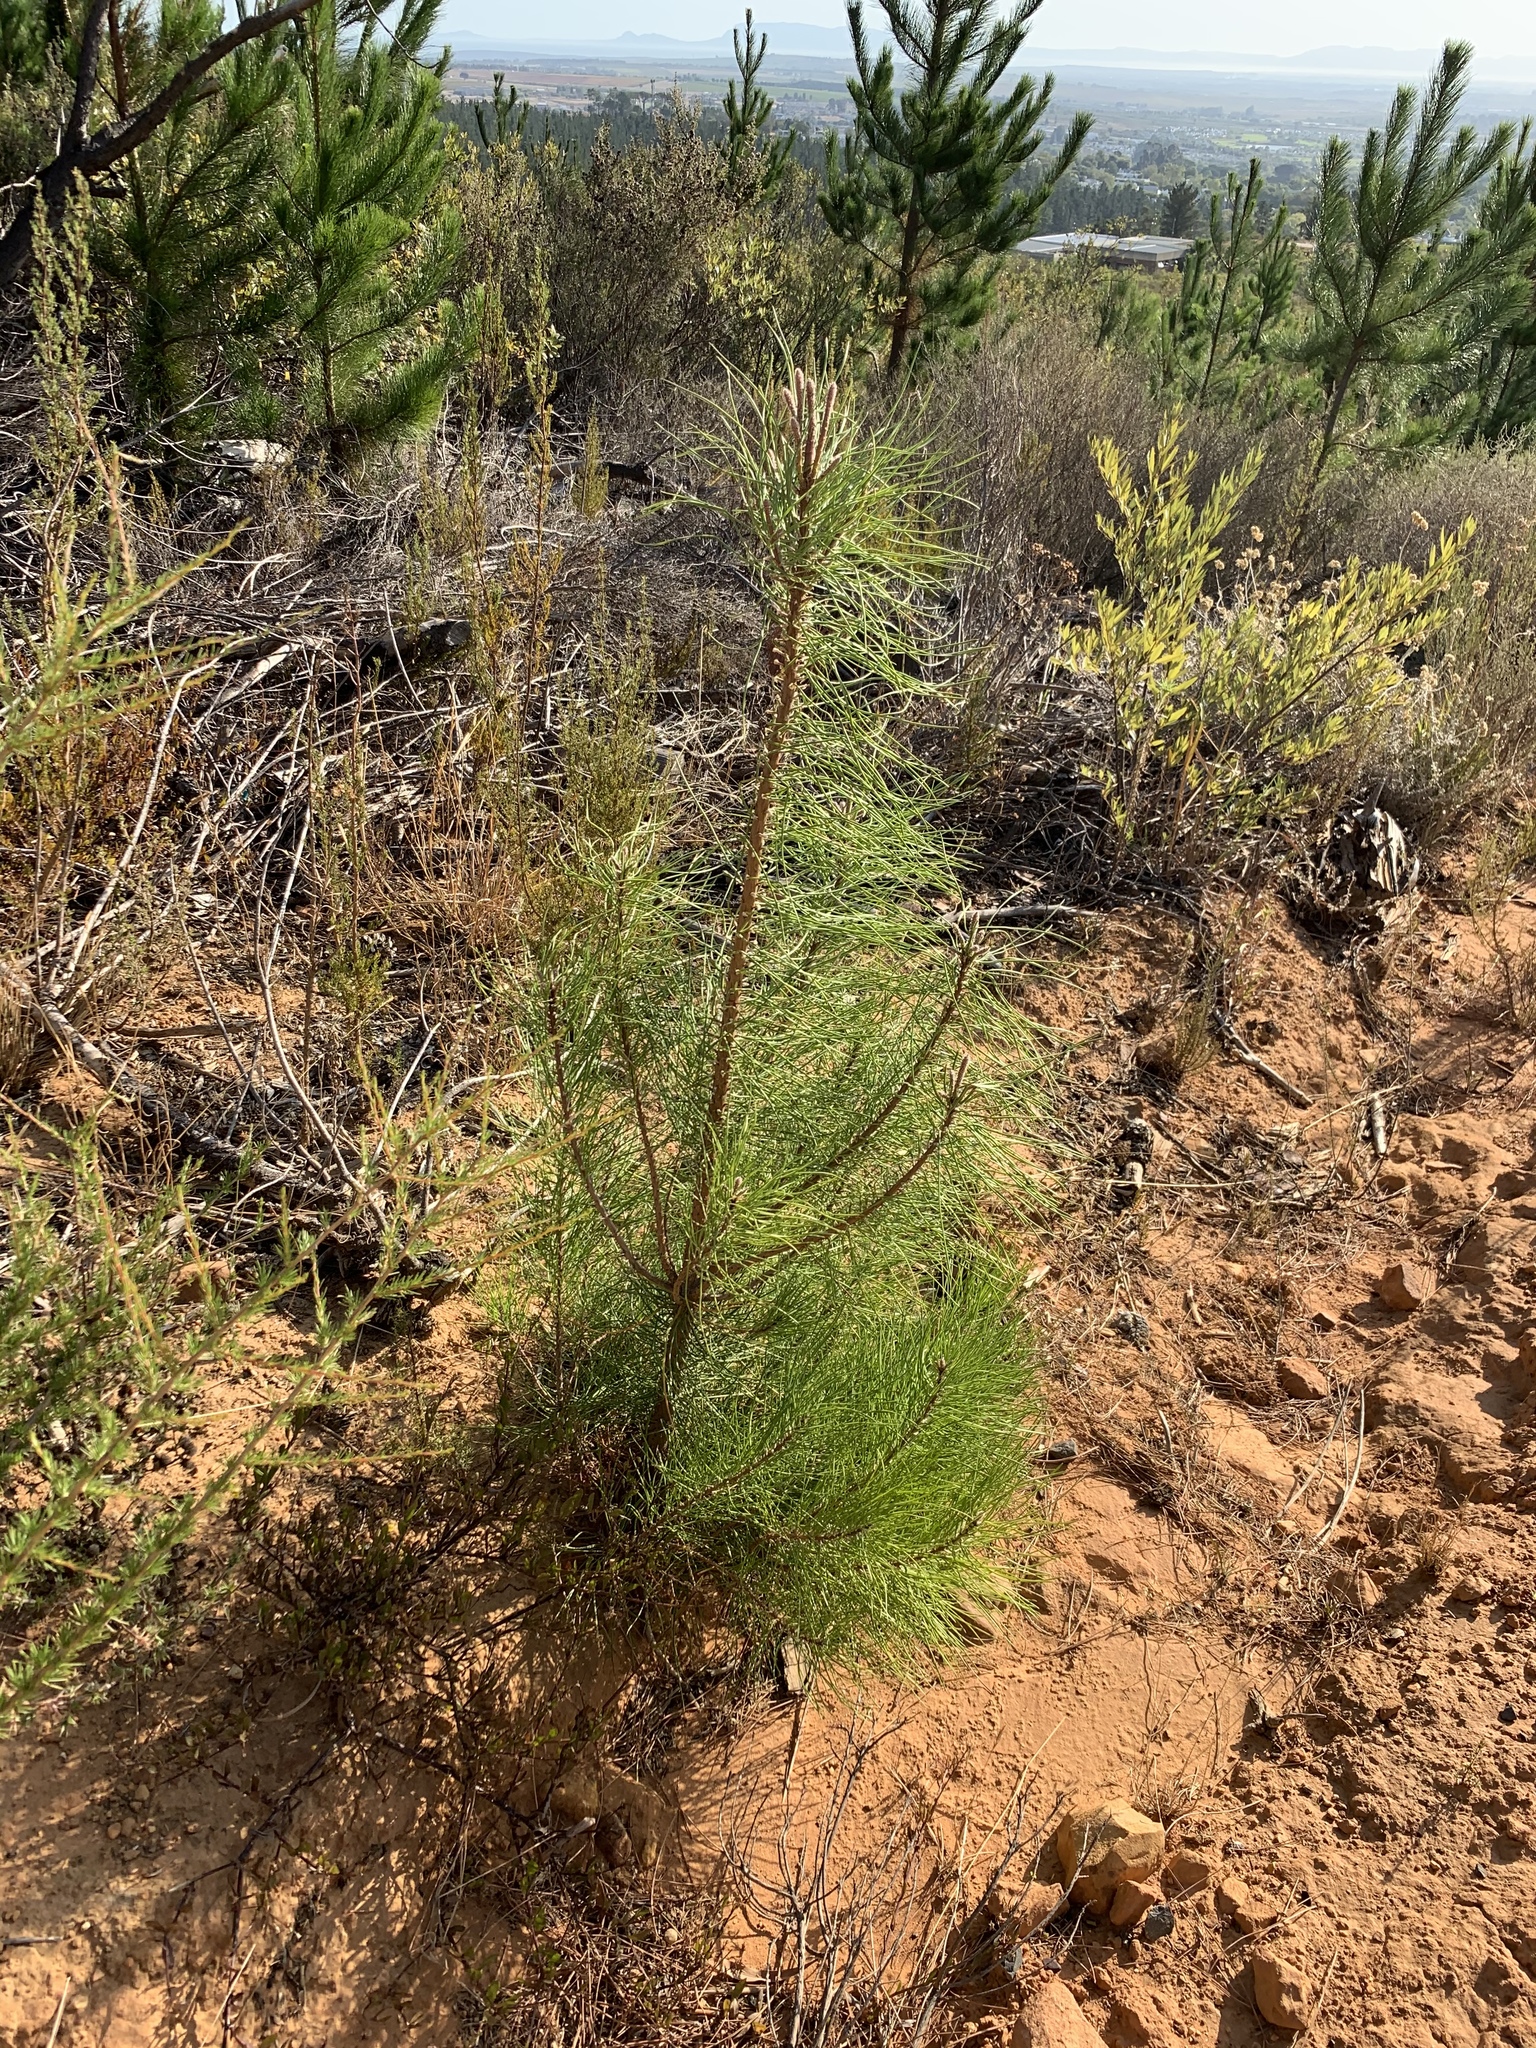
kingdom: Plantae
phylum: Tracheophyta
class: Pinopsida
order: Pinales
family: Pinaceae
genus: Pinus
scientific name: Pinus pinaster
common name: Maritime pine
